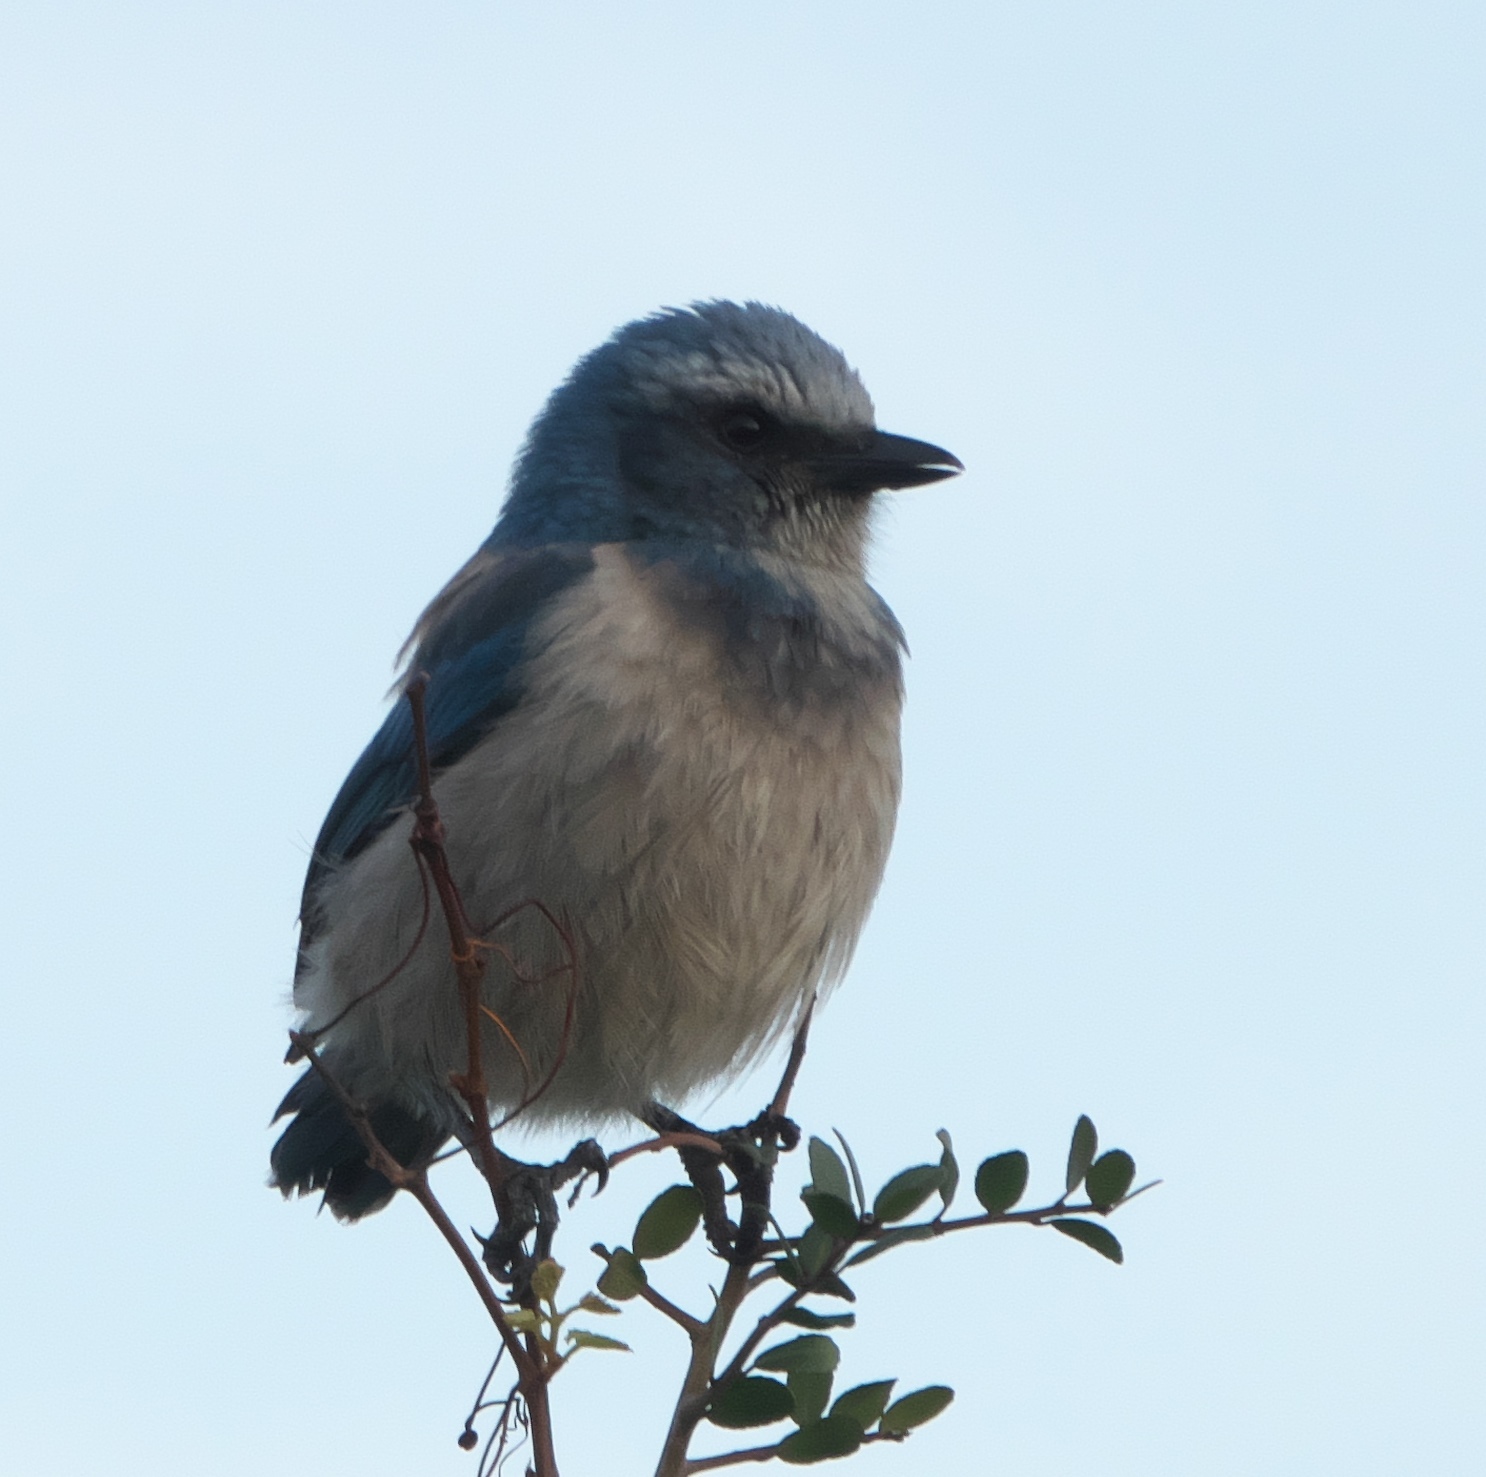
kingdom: Animalia
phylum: Chordata
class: Aves
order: Passeriformes
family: Corvidae
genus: Aphelocoma
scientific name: Aphelocoma coerulescens
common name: Florida scrub jay
